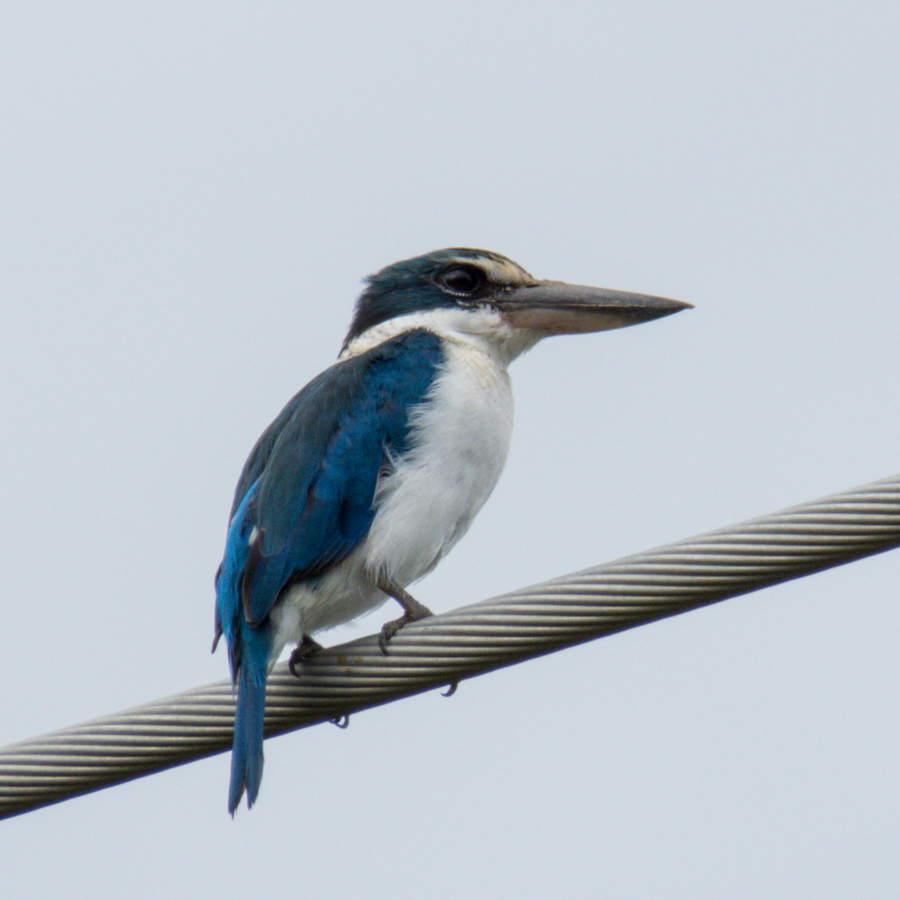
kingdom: Animalia
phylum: Chordata
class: Aves
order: Coraciiformes
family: Alcedinidae
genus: Todiramphus
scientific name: Todiramphus chloris
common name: Collared kingfisher
